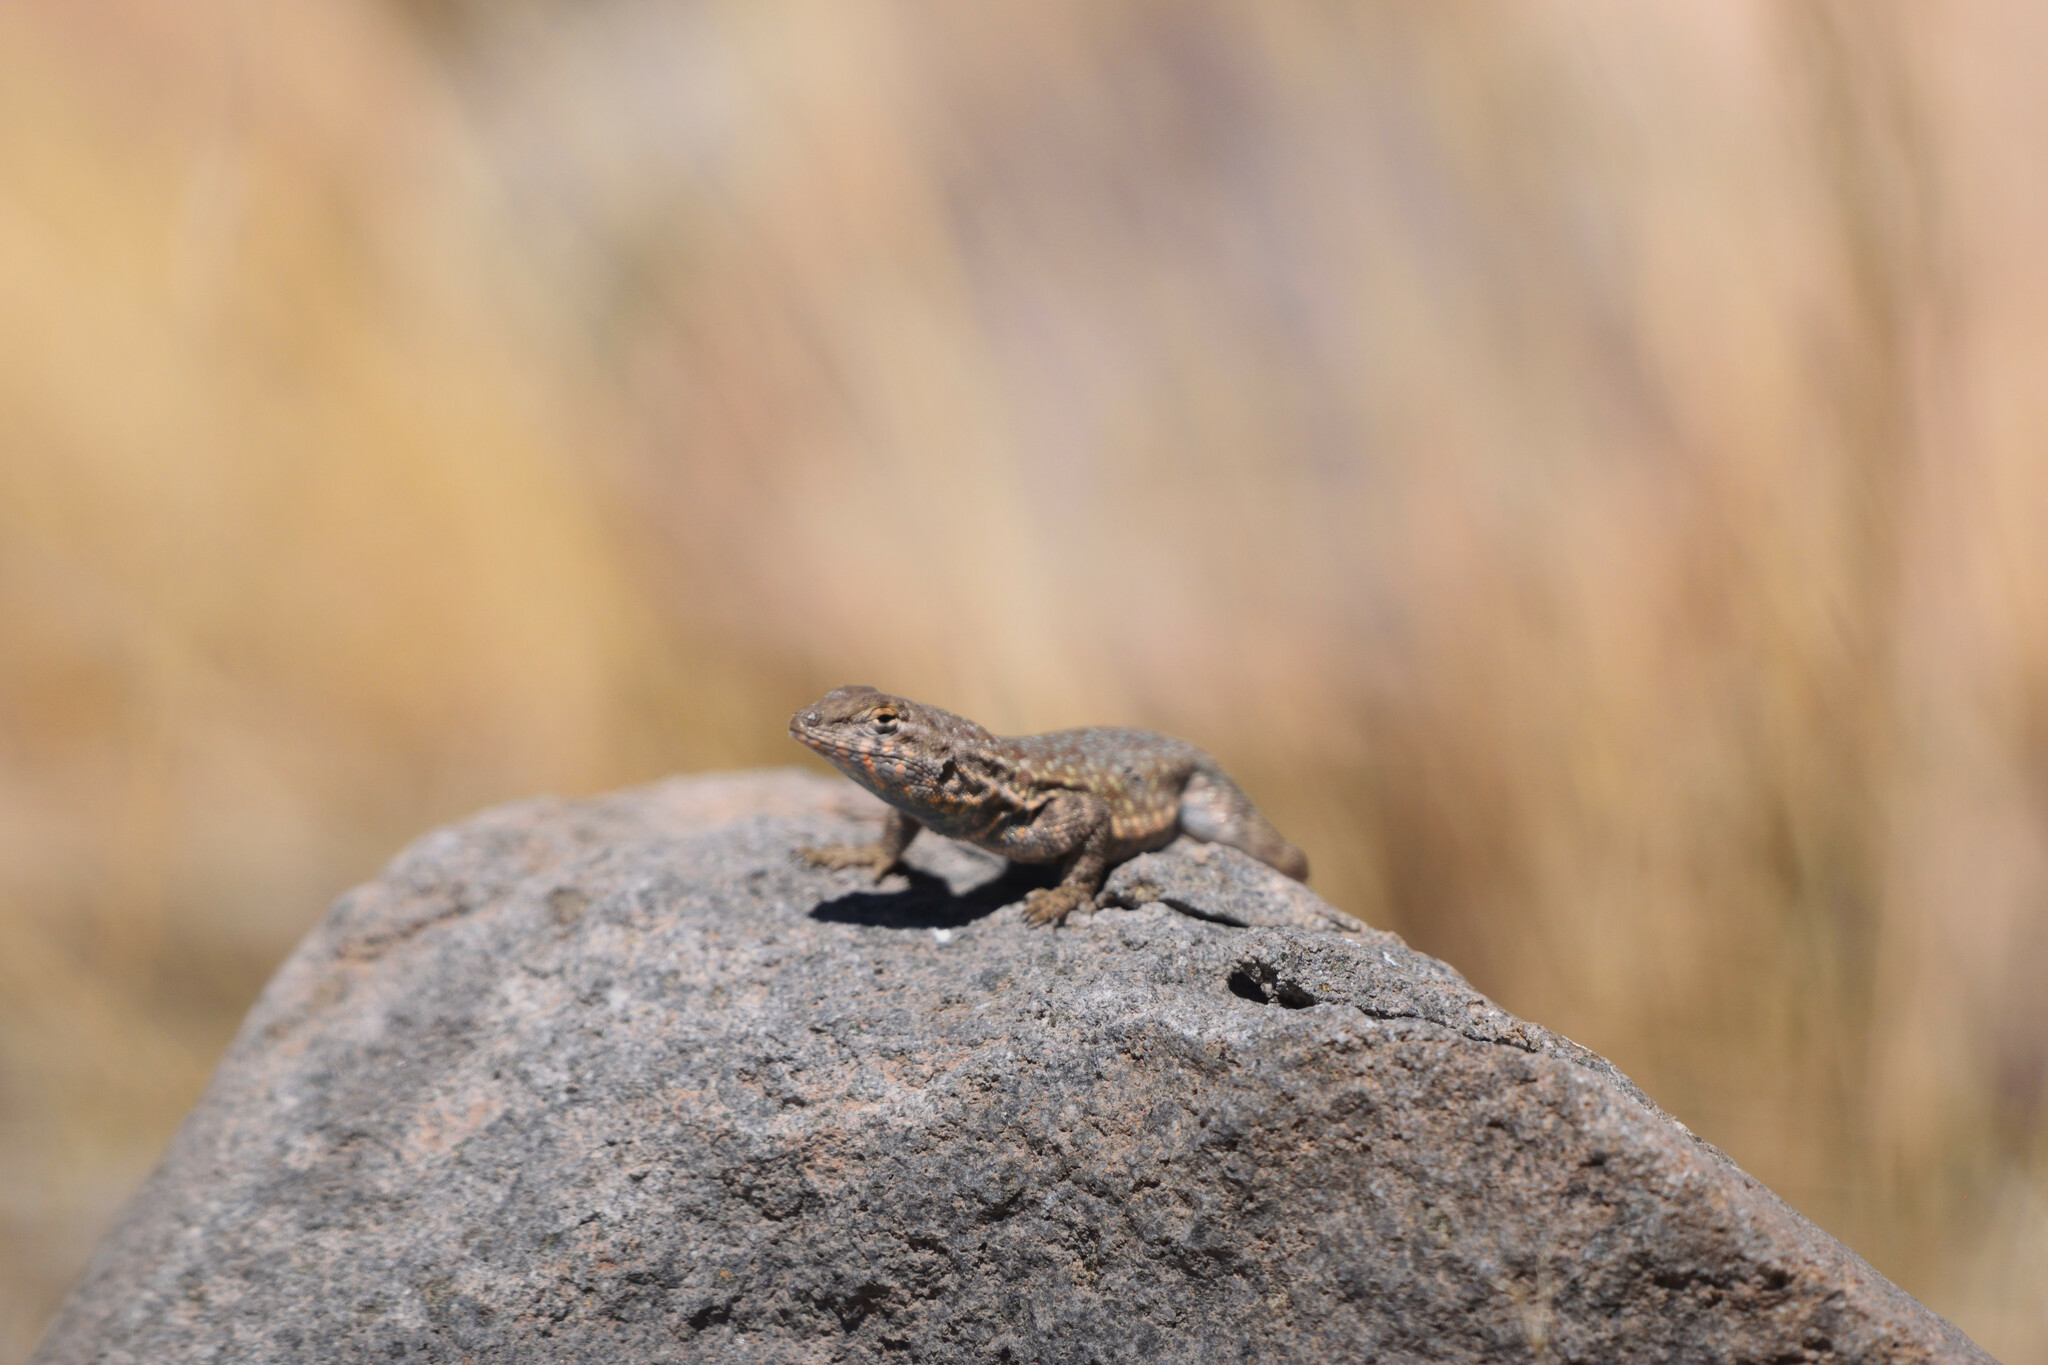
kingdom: Animalia
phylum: Chordata
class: Squamata
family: Phrynosomatidae
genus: Uta
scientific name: Uta stansburiana
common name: Side-blotched lizard
